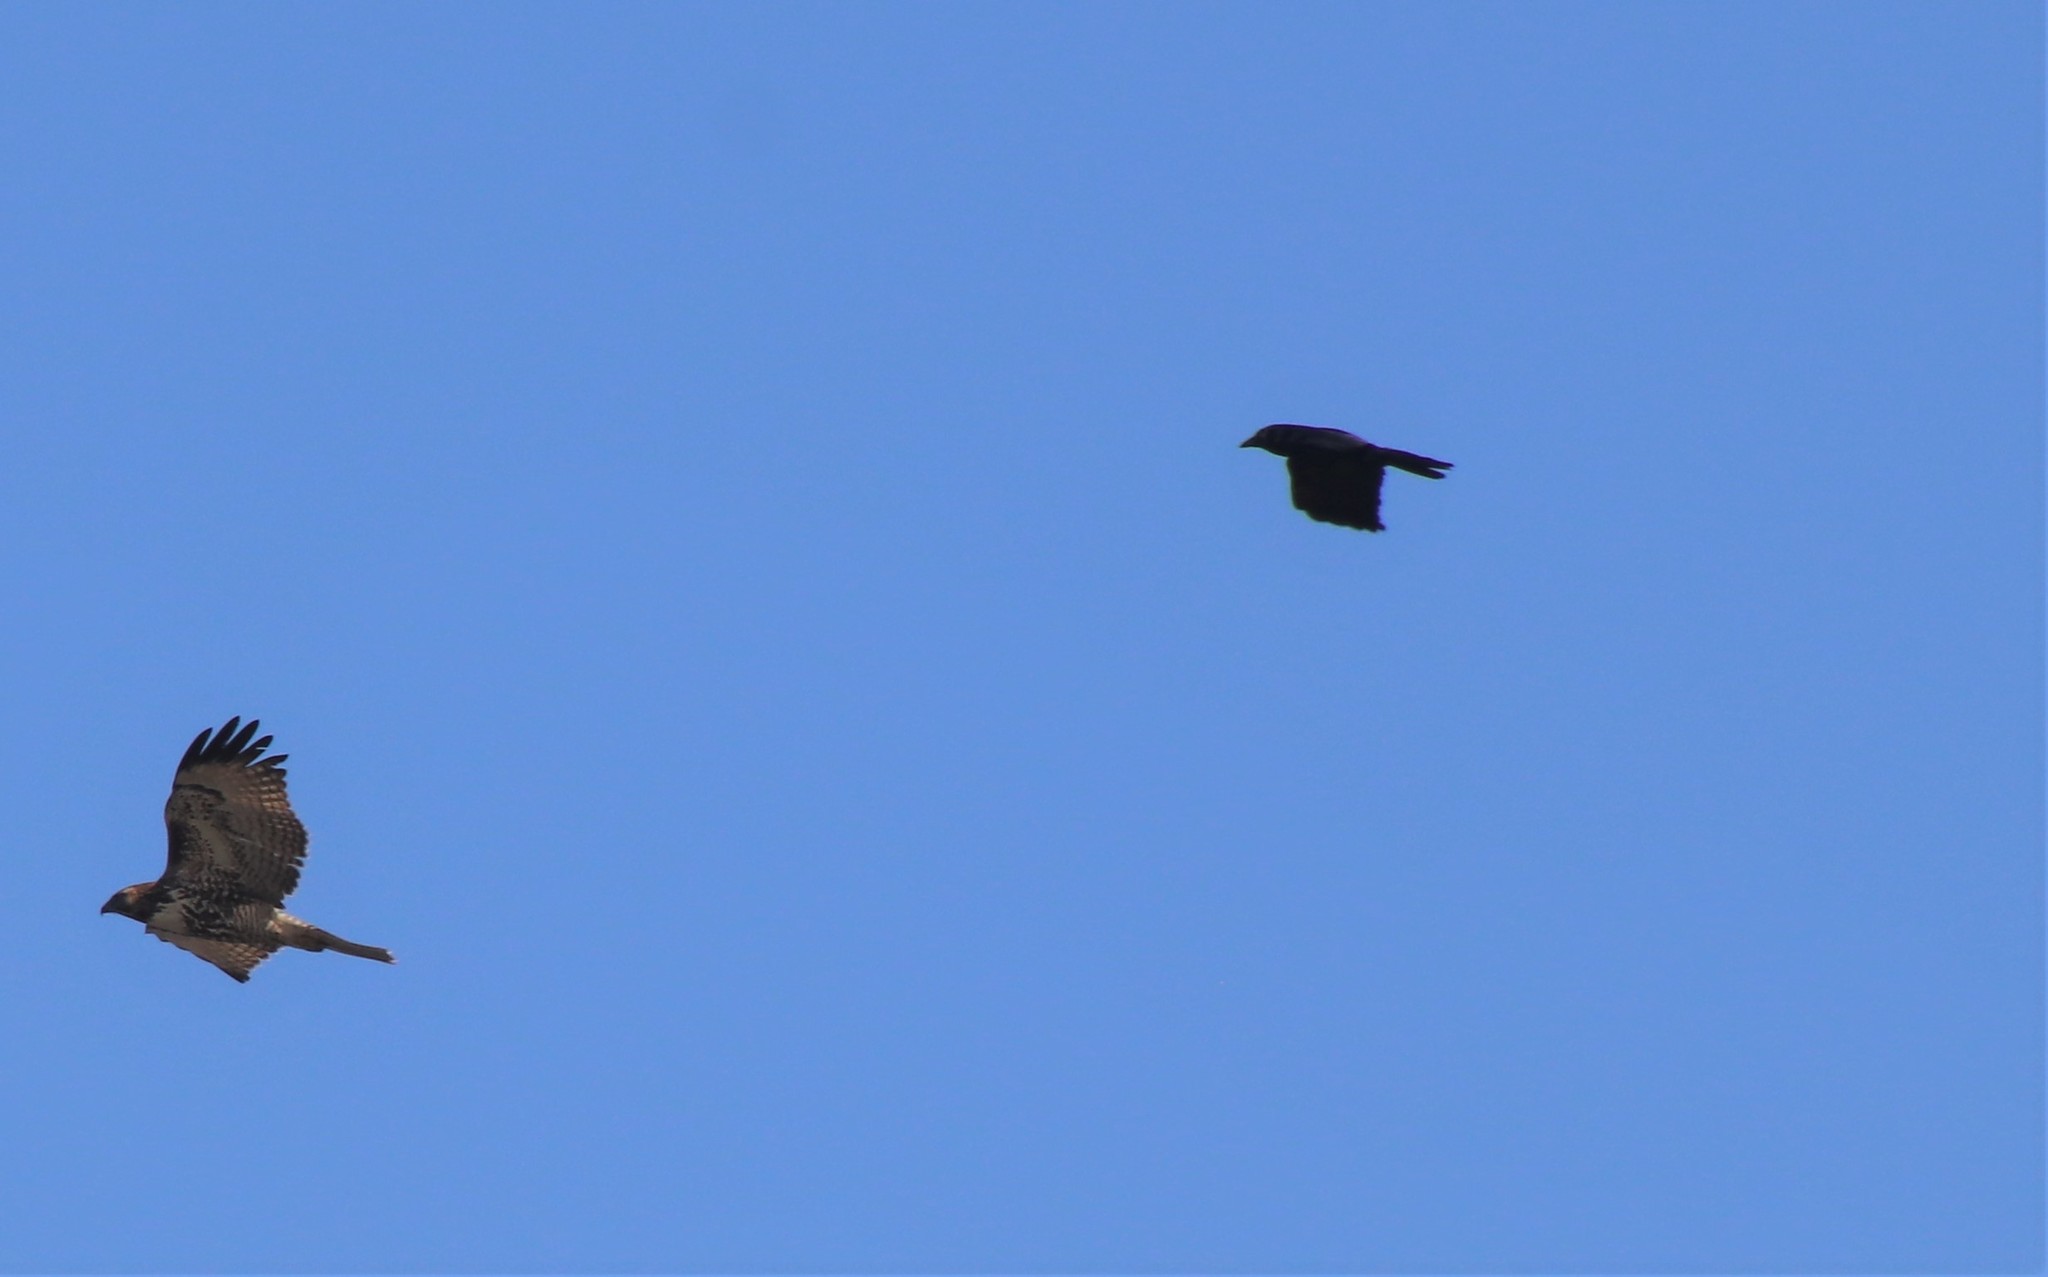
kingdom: Animalia
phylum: Chordata
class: Aves
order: Passeriformes
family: Corvidae
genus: Corvus
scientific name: Corvus brachyrhynchos
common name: American crow
